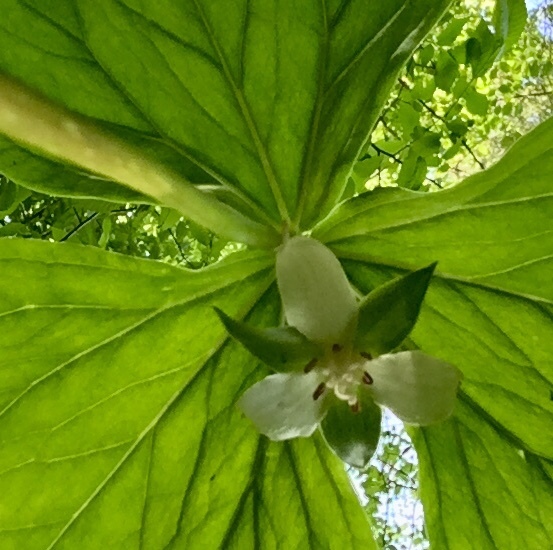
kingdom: Plantae
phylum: Tracheophyta
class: Liliopsida
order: Liliales
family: Melanthiaceae
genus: Trillium
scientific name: Trillium cernuum
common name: Nodding trillium
